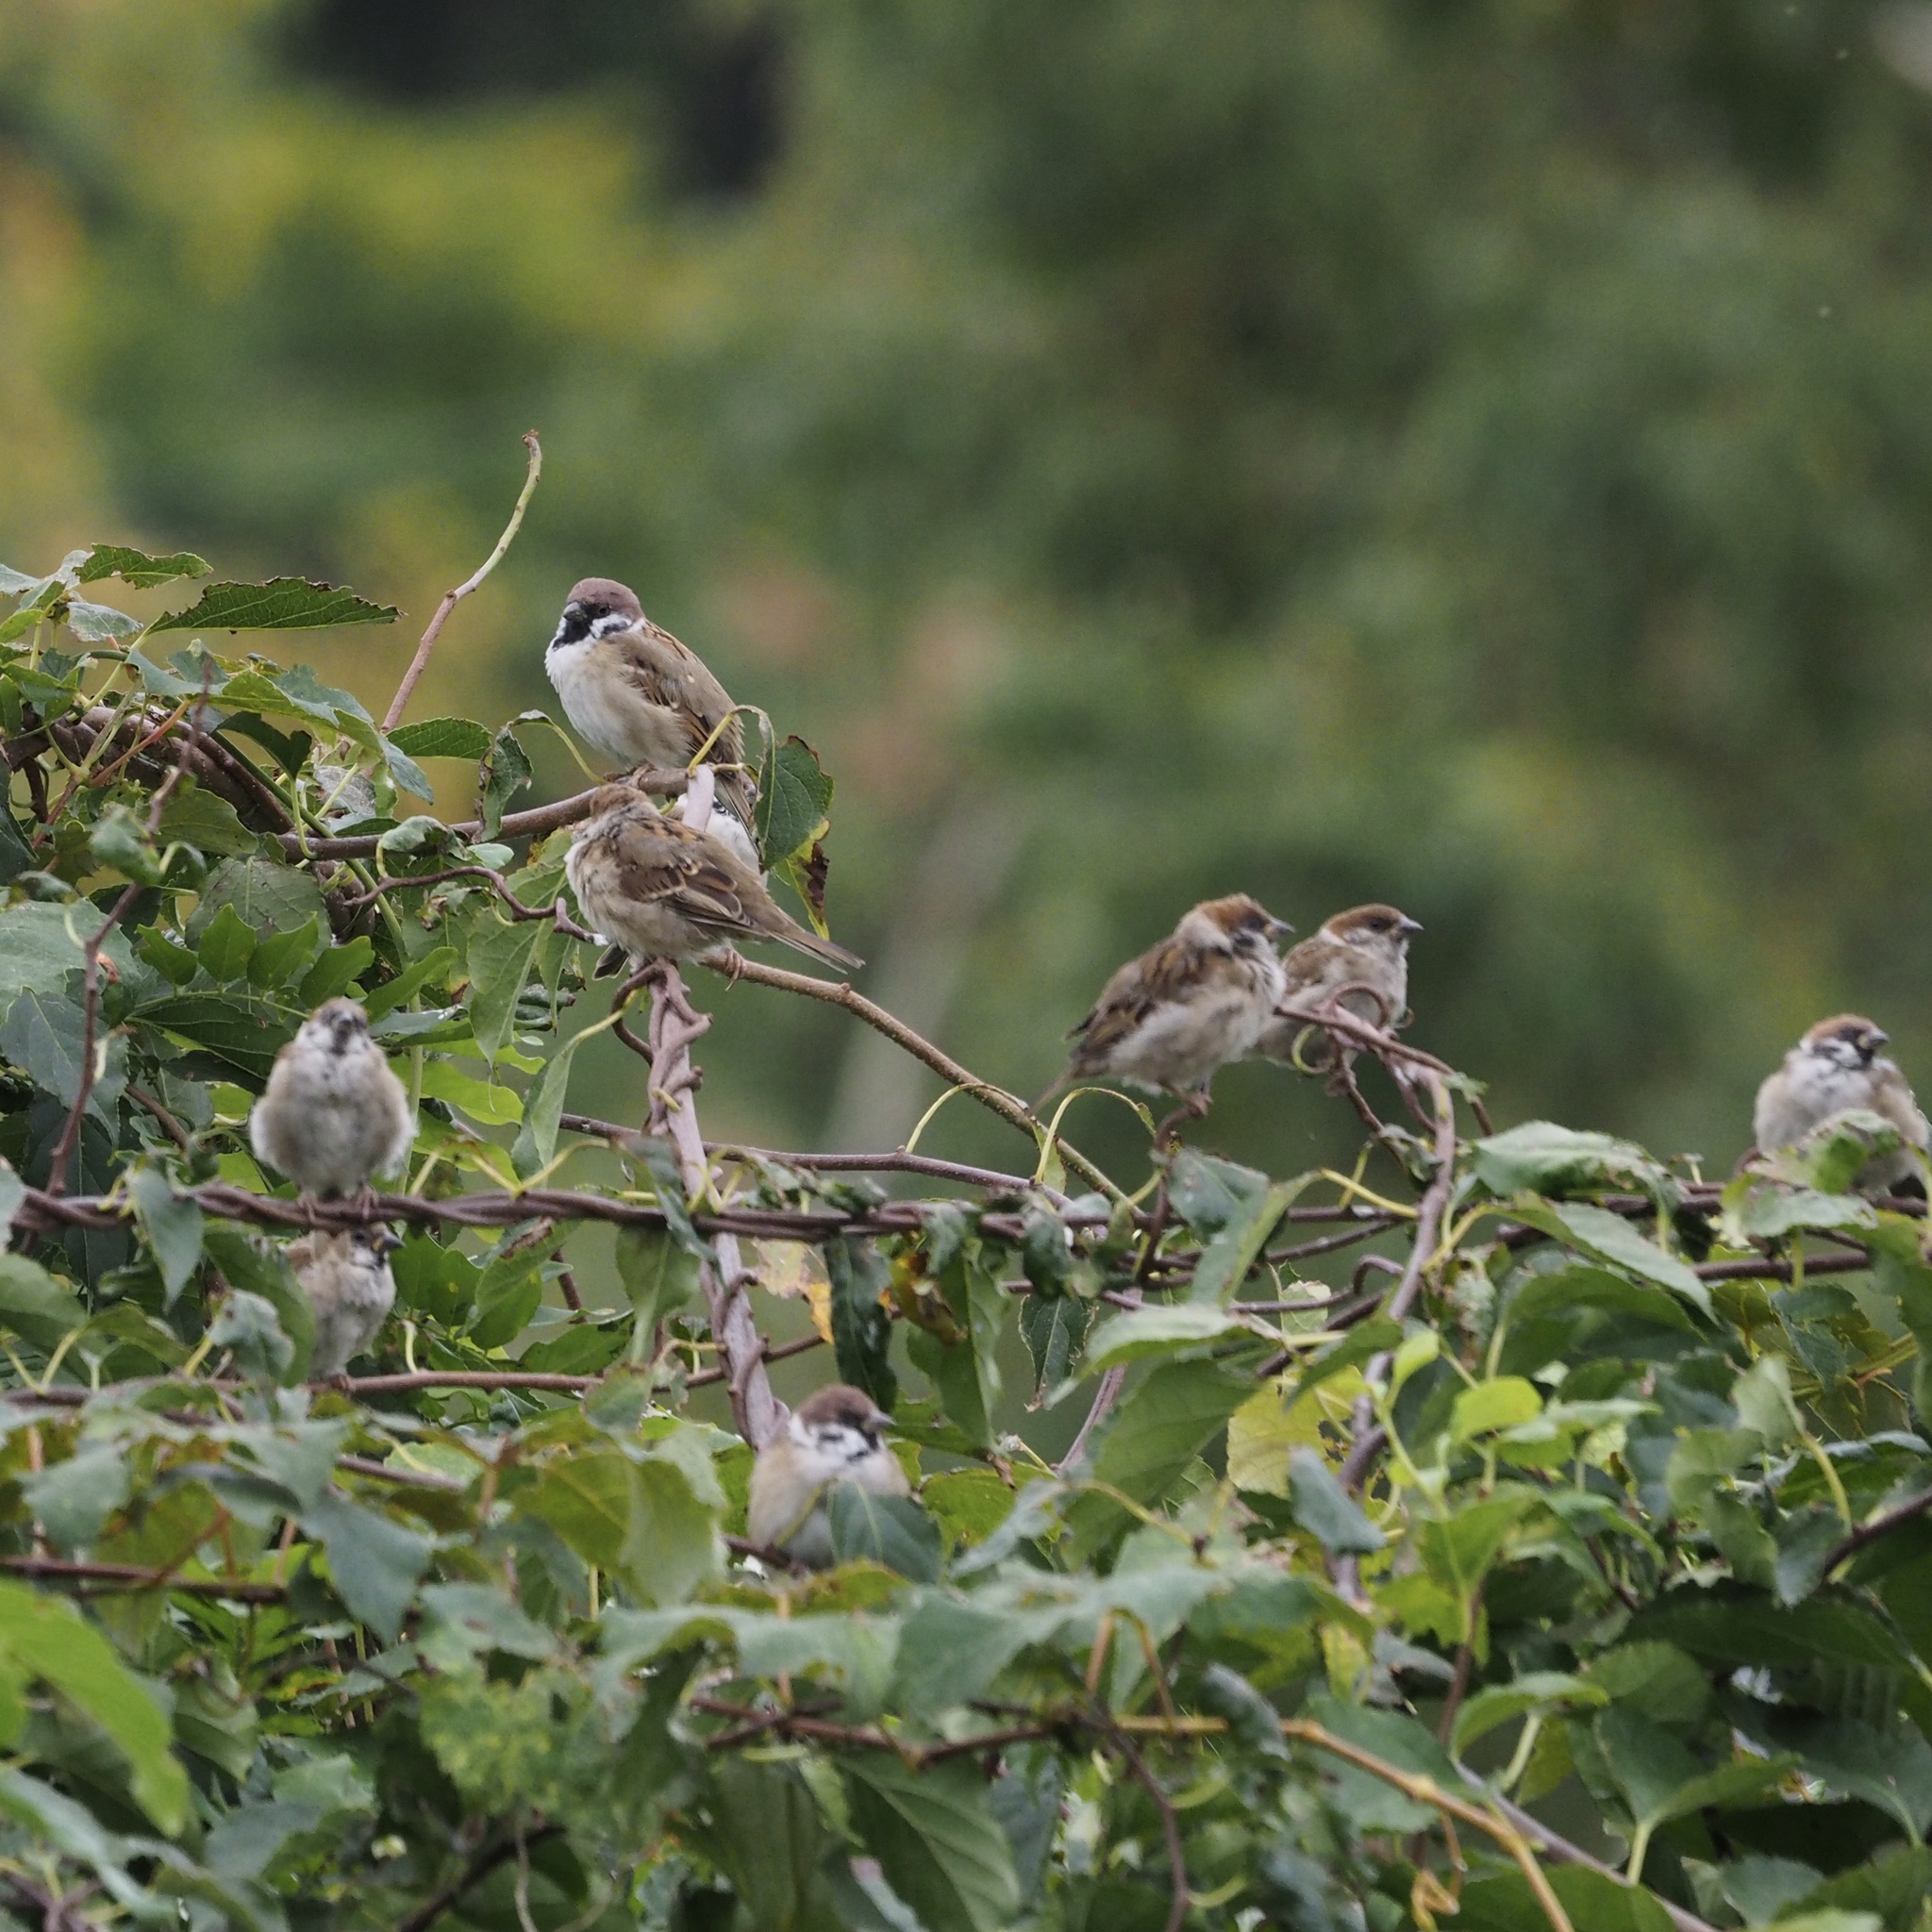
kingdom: Animalia
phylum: Chordata
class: Aves
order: Passeriformes
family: Passeridae
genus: Passer
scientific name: Passer montanus
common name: Eurasian tree sparrow
